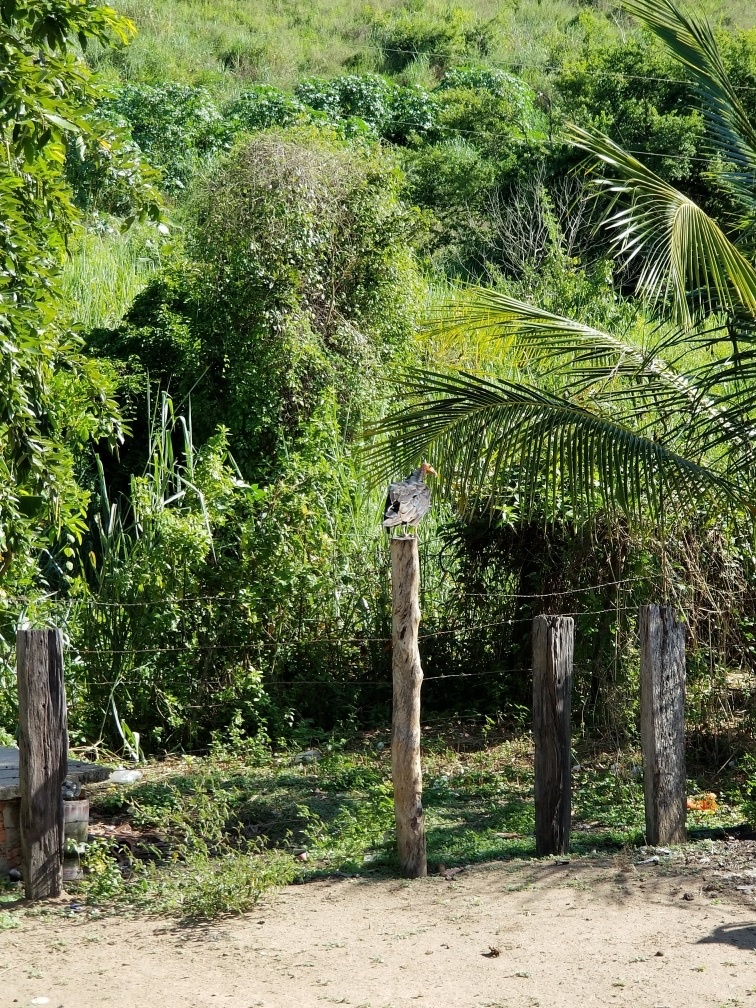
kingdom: Animalia
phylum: Chordata
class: Aves
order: Accipitriformes
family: Cathartidae
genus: Cathartes
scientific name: Cathartes burrovianus
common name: Lesser yellow-headed vulture
